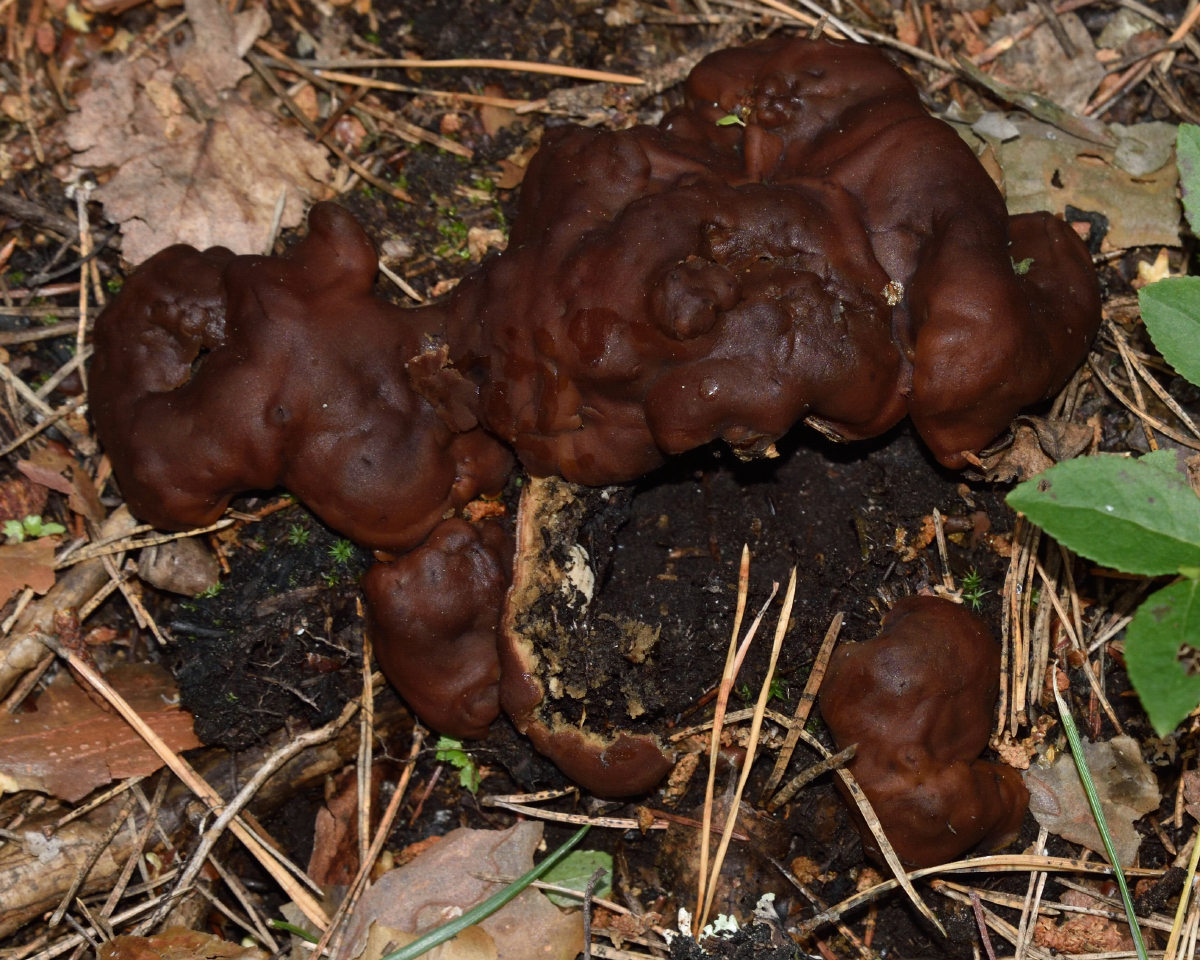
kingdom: Fungi
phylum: Ascomycota
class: Pezizomycetes
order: Pezizales
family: Rhizinaceae
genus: Rhizina
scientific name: Rhizina undulata
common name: Pine firefungus
